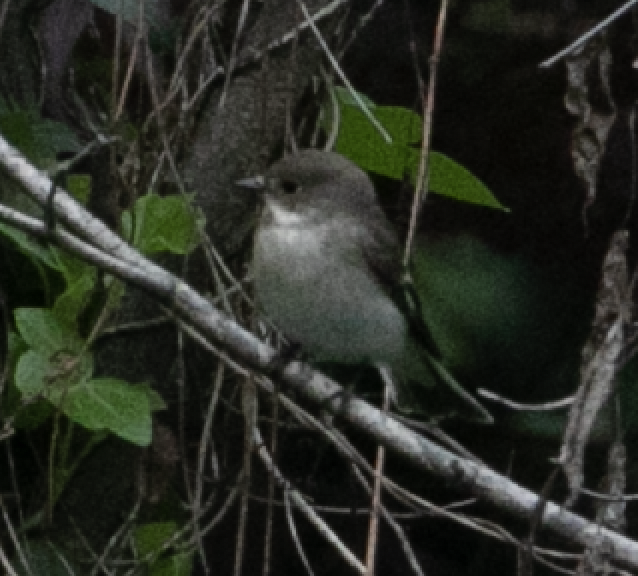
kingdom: Animalia
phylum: Chordata
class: Aves
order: Passeriformes
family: Muscicapidae
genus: Ficedula
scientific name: Ficedula hypoleuca
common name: European pied flycatcher
